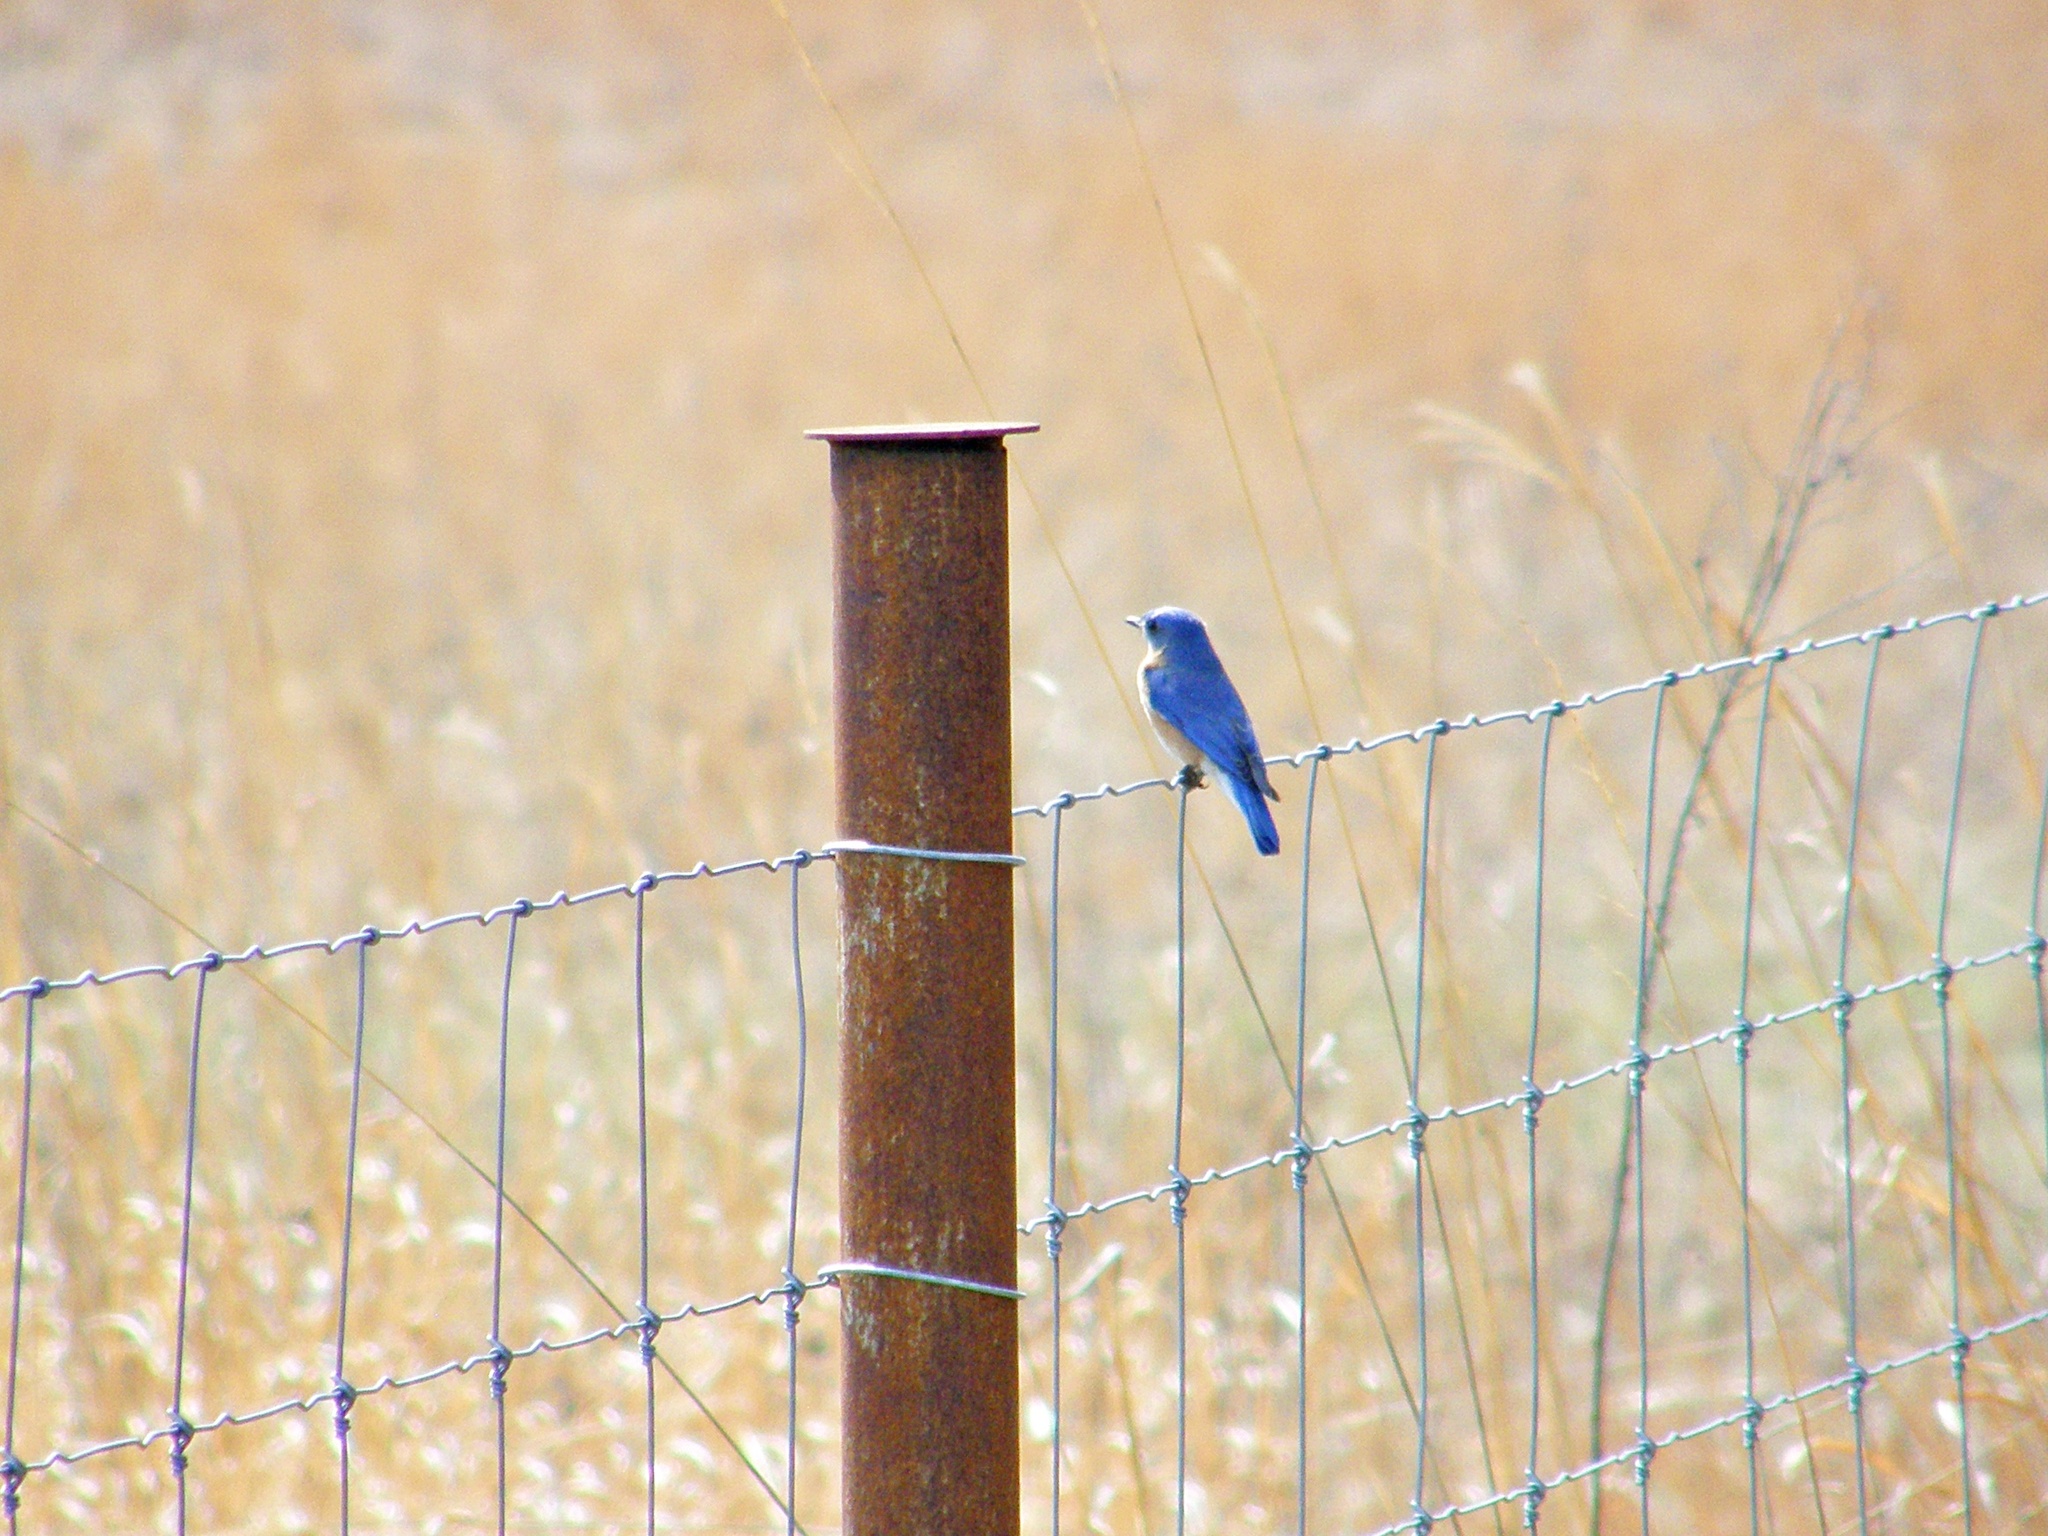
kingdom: Animalia
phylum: Chordata
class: Aves
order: Passeriformes
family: Turdidae
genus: Sialia
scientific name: Sialia sialis
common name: Eastern bluebird
